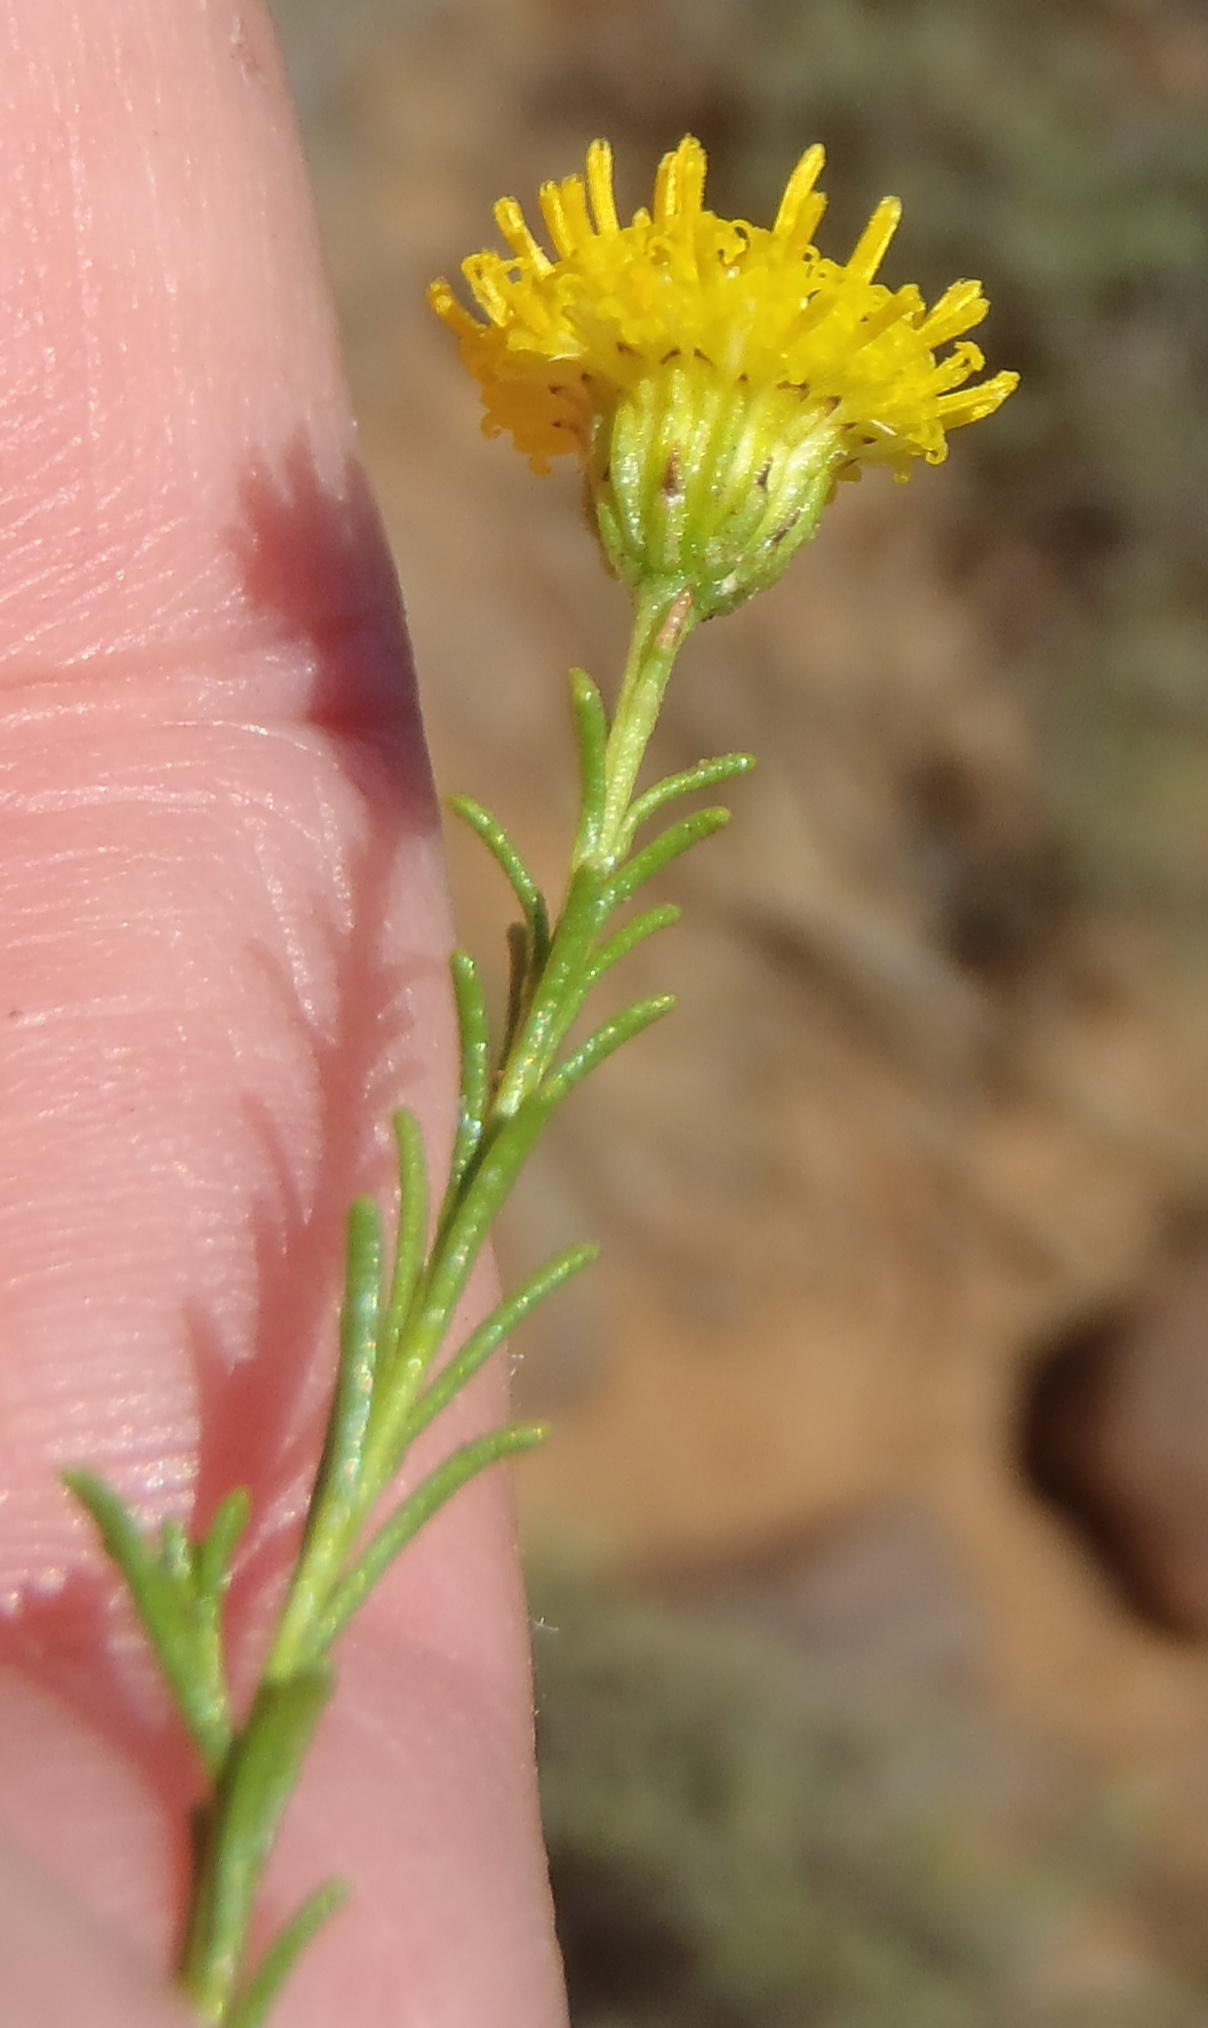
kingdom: Plantae
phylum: Tracheophyta
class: Magnoliopsida
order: Asterales
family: Asteraceae
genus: Chrysocoma
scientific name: Chrysocoma ciliata
